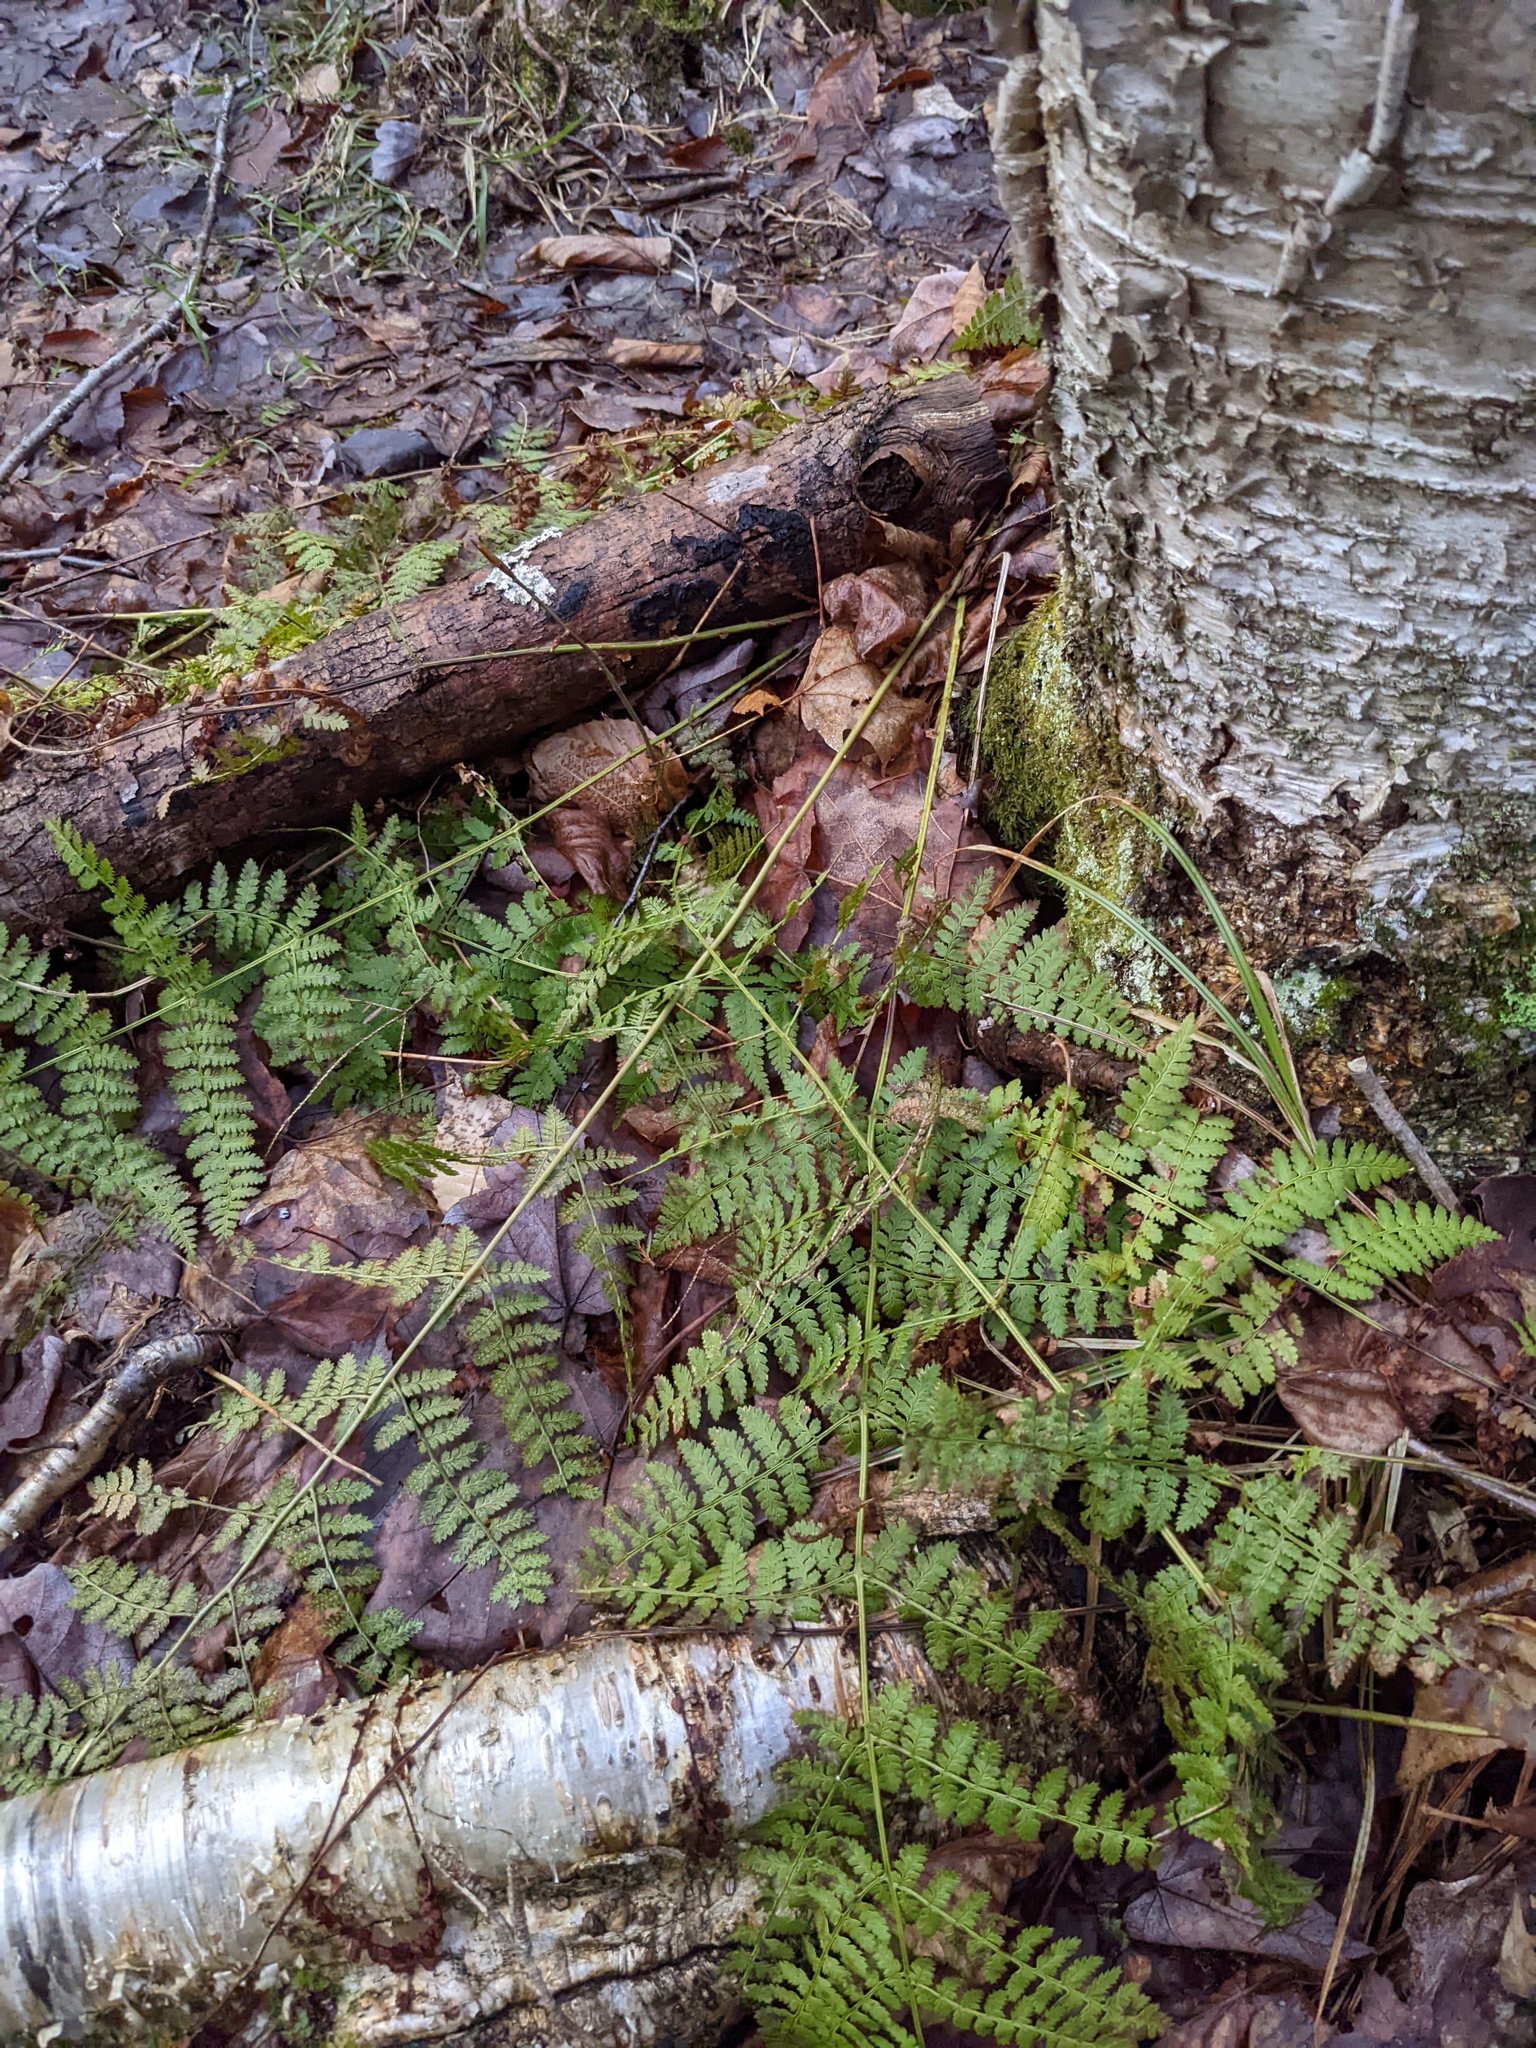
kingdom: Plantae
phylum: Tracheophyta
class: Polypodiopsida
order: Polypodiales
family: Dryopteridaceae
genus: Dryopteris
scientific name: Dryopteris intermedia
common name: Evergreen wood fern
